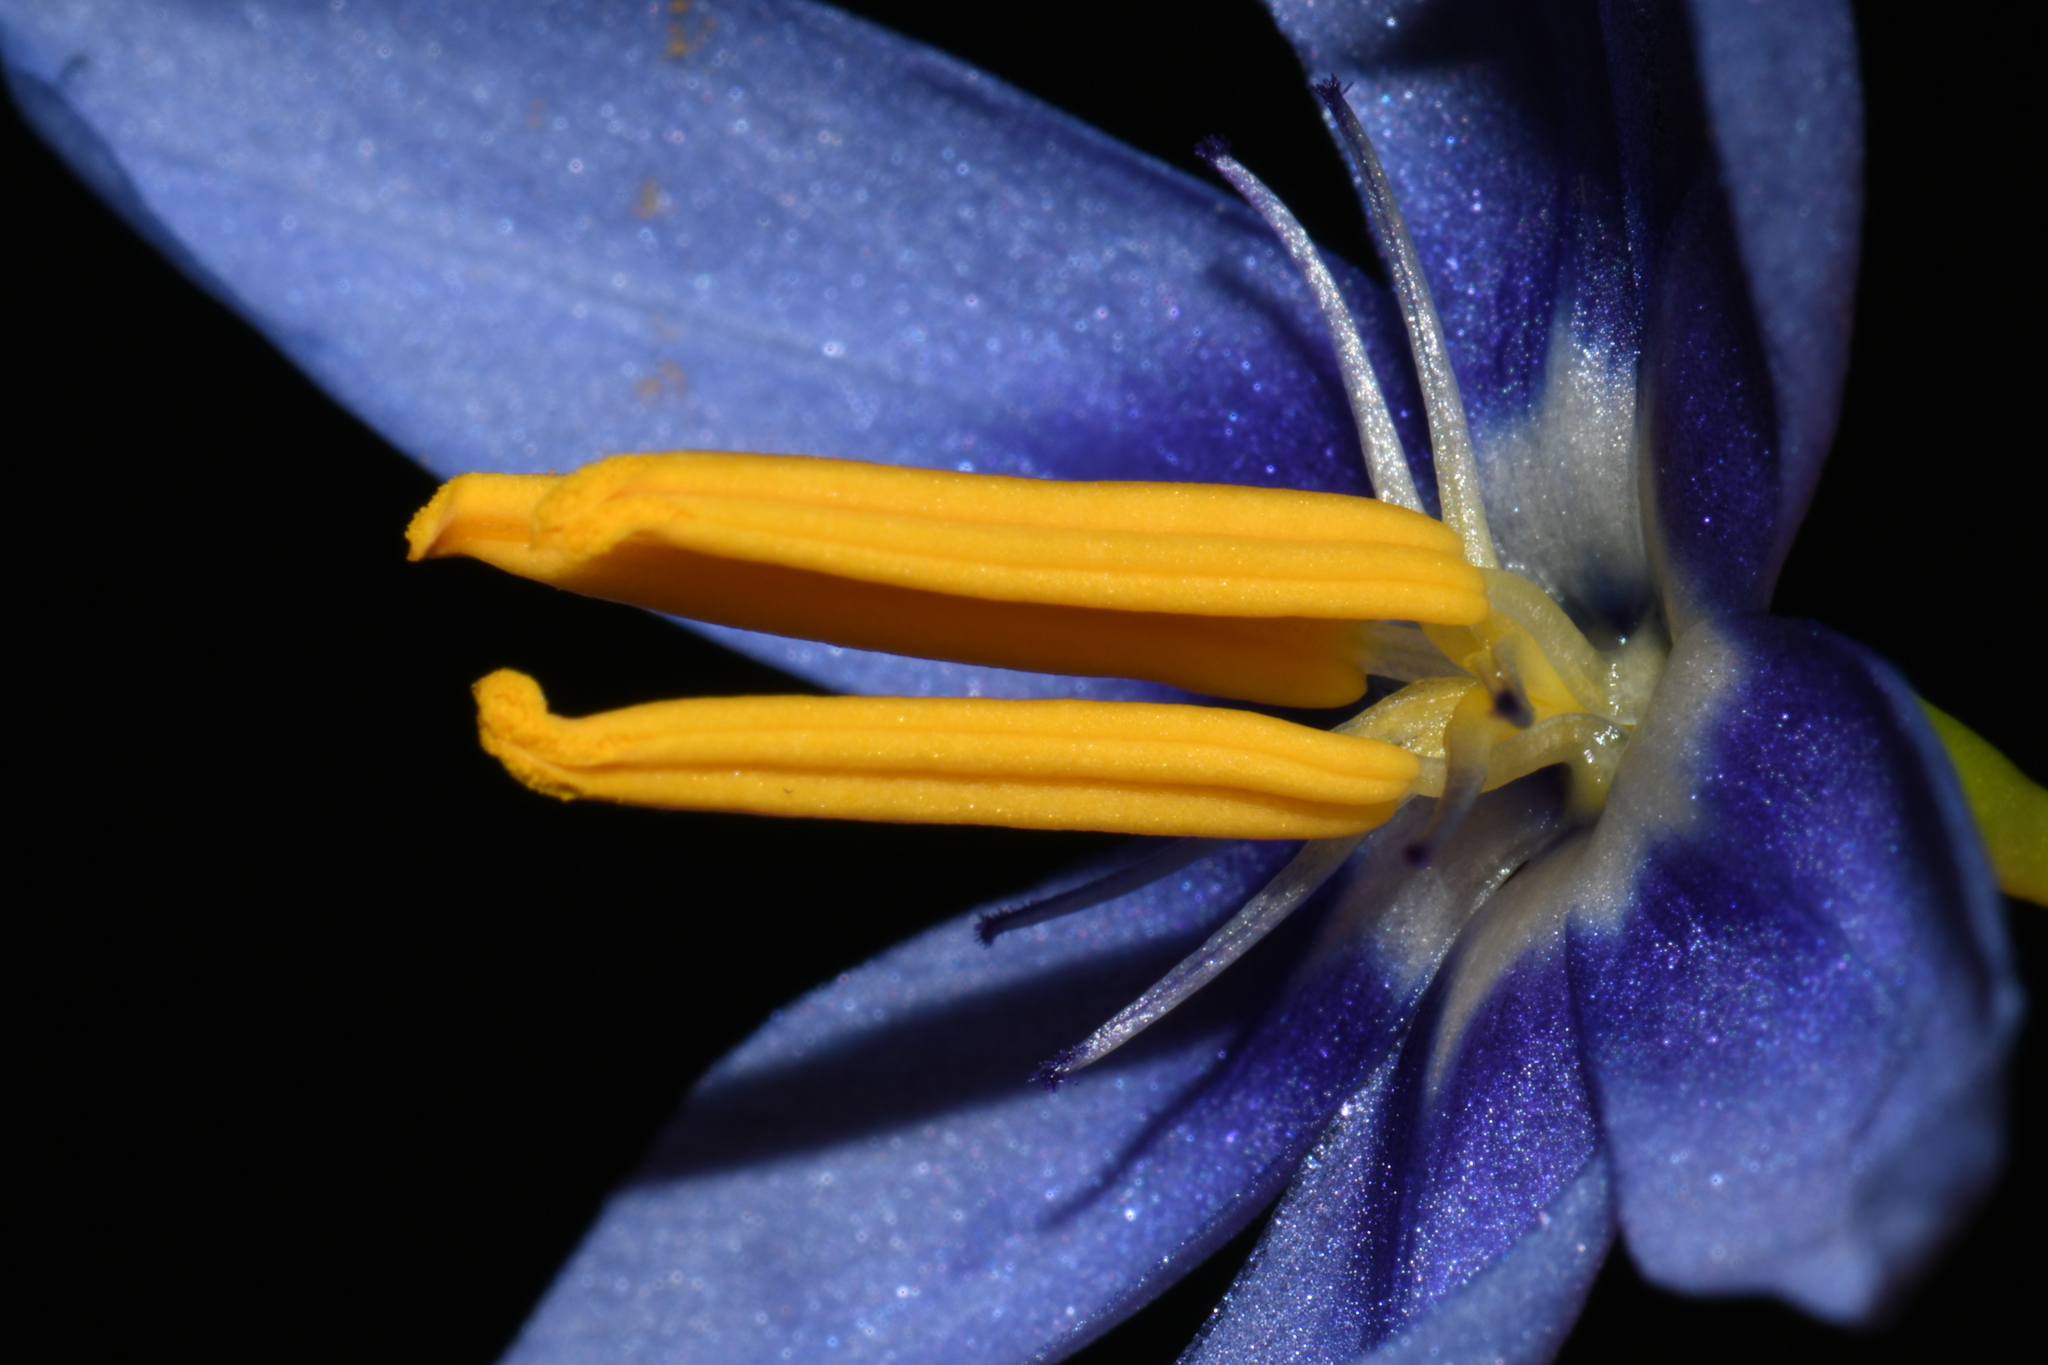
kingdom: Plantae
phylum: Tracheophyta
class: Liliopsida
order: Asparagales
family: Iridaceae
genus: Nemastylis
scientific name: Nemastylis geminiflora
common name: Prairie celestial
